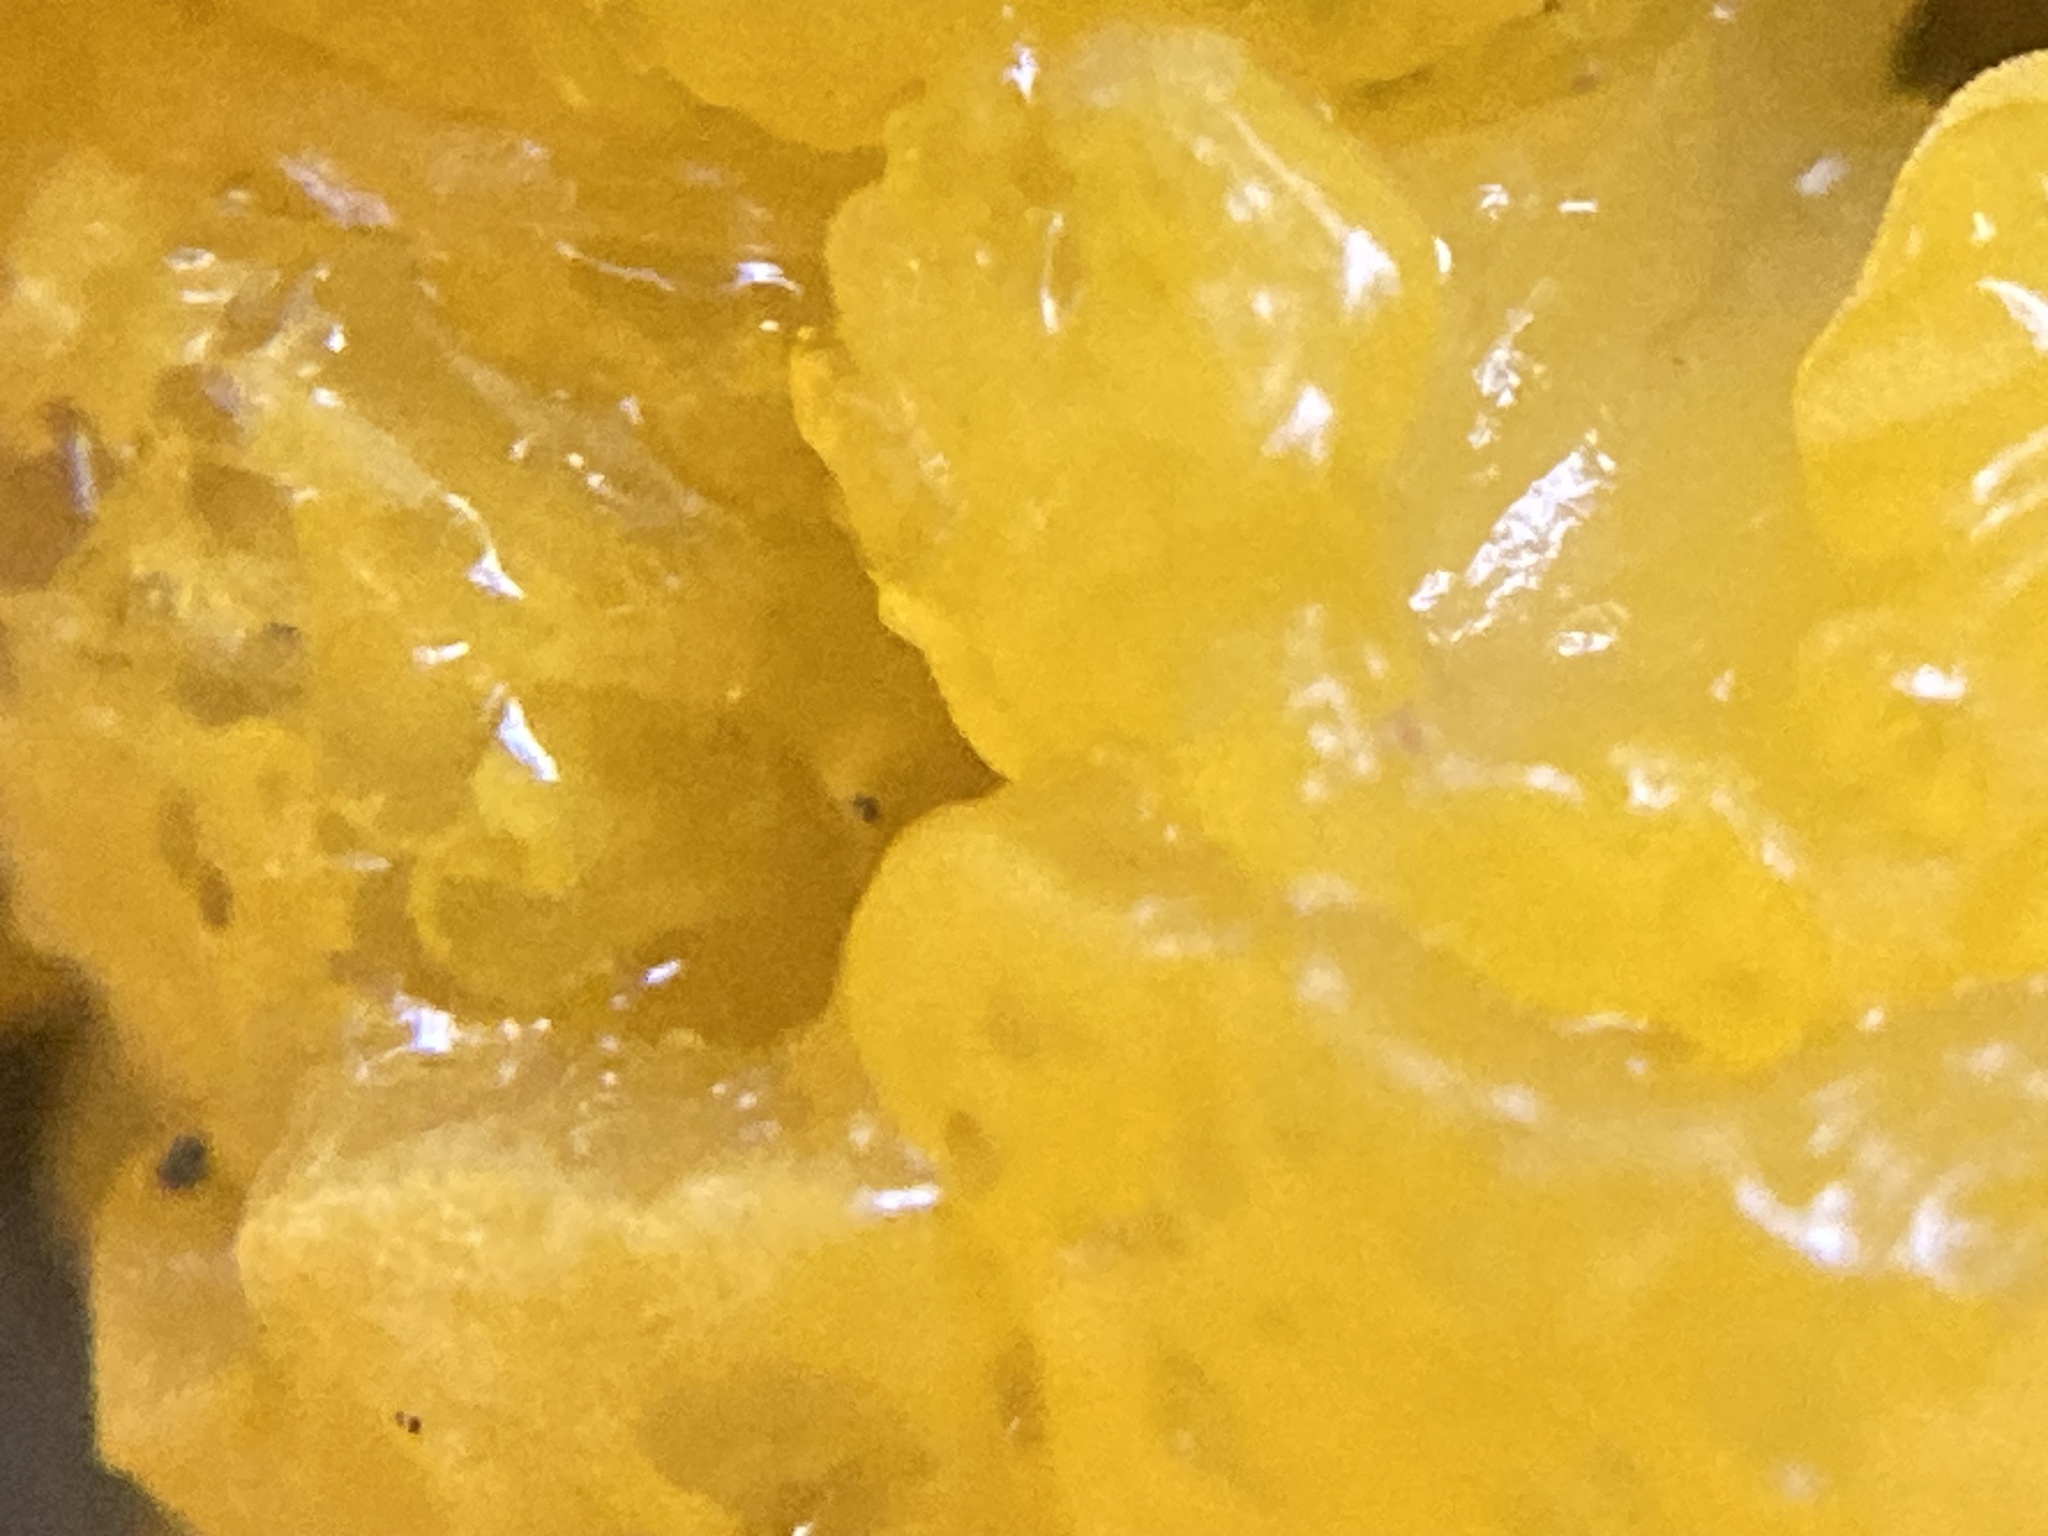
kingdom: Fungi
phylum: Basidiomycota
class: Dacrymycetes
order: Dacrymycetales
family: Dacrymycetaceae
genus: Dacrymyces
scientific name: Dacrymyces chrysospermus
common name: Orange jelly spot
